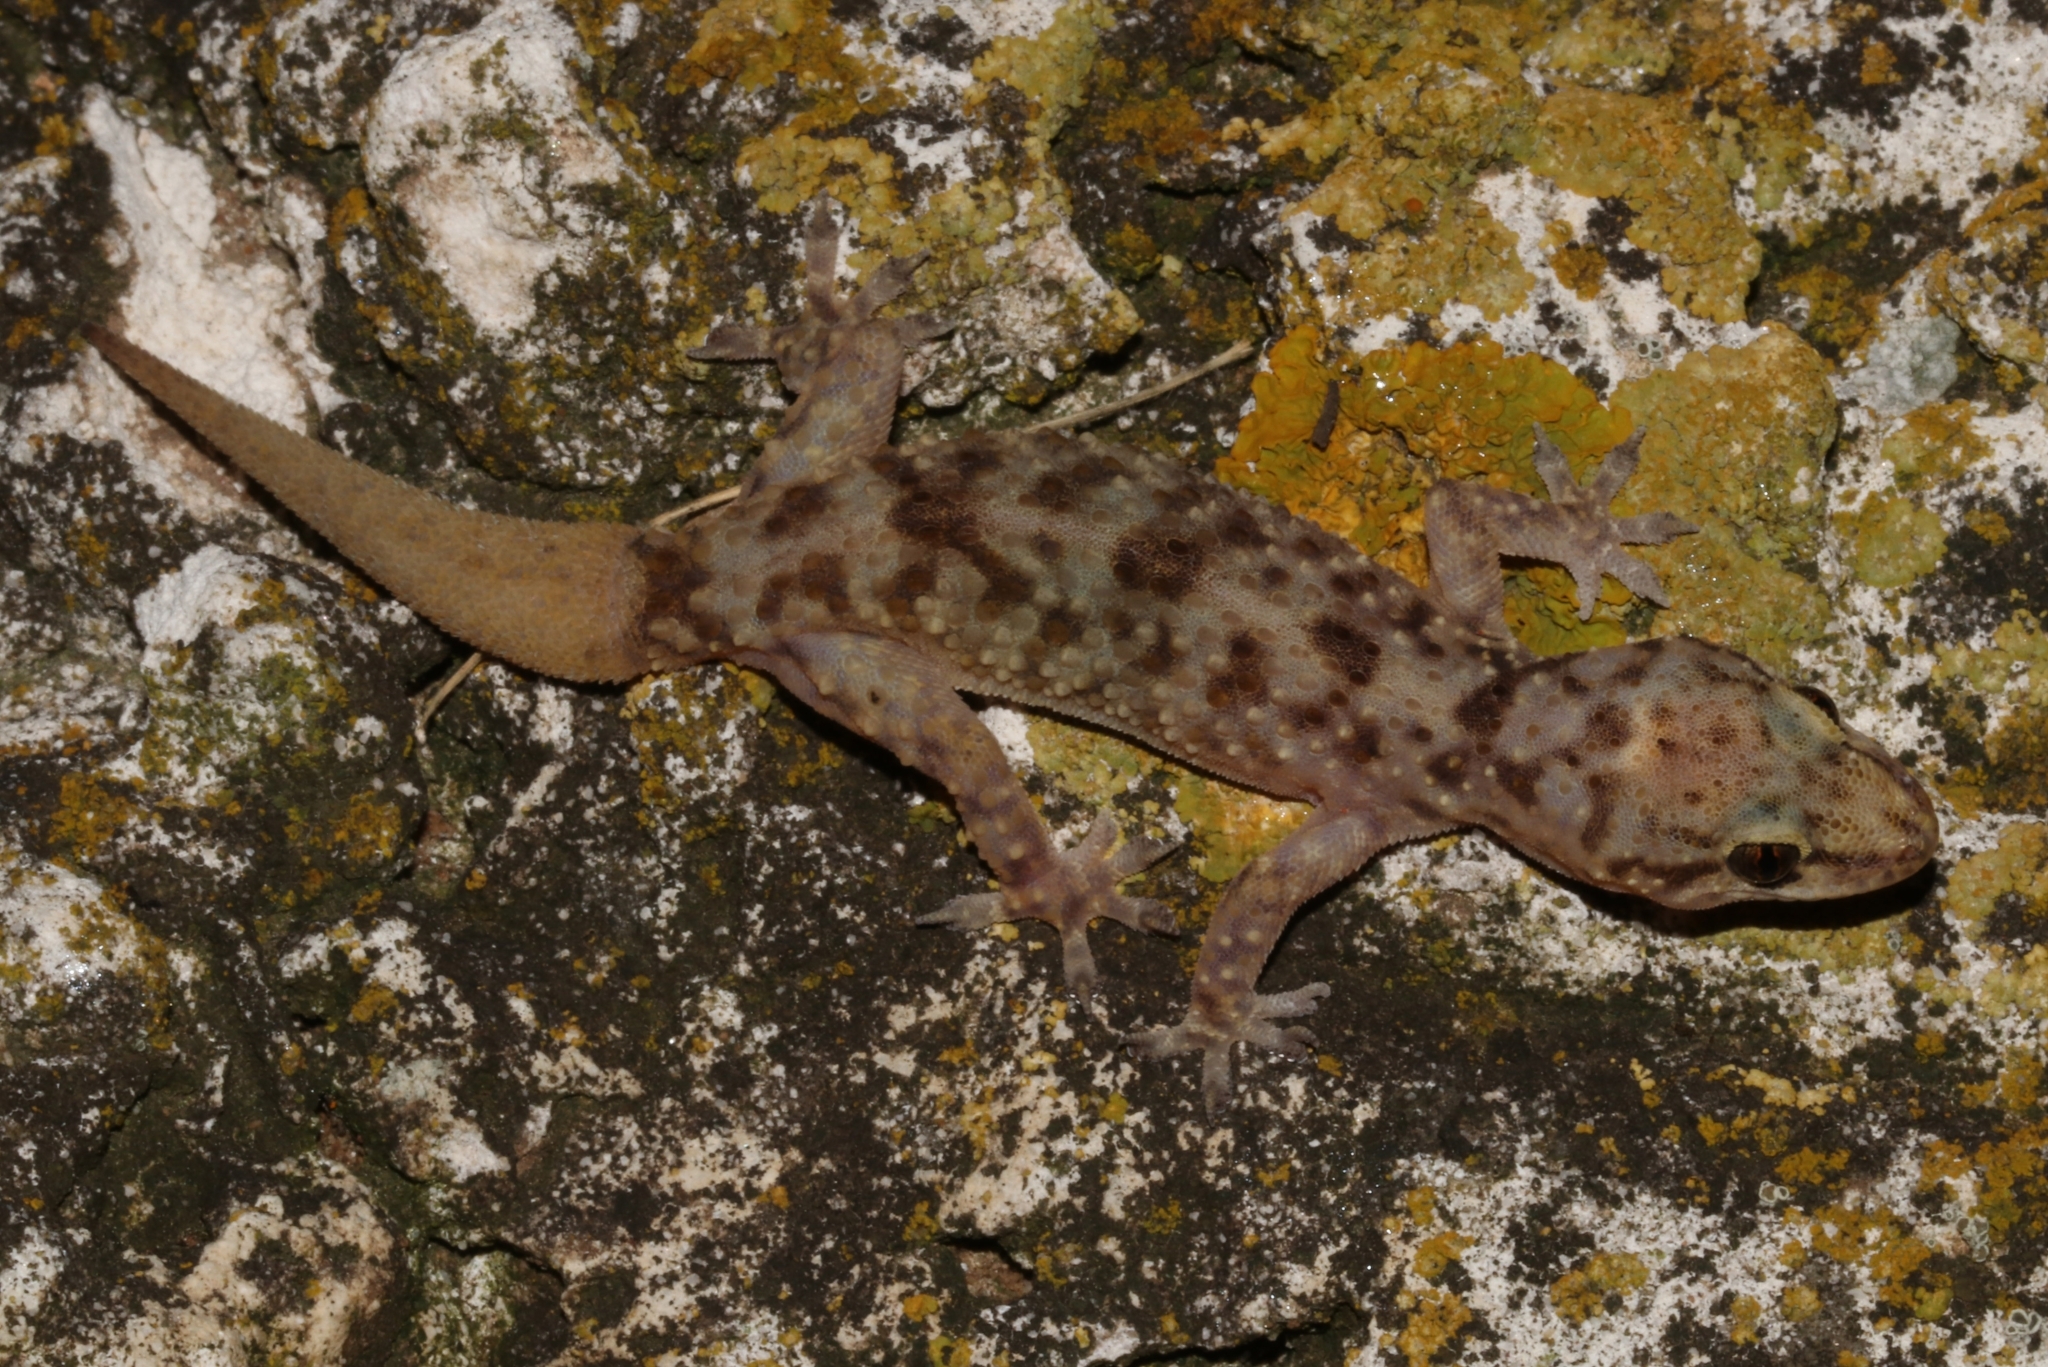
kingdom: Animalia
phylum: Chordata
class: Squamata
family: Gekkonidae
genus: Hemidactylus
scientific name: Hemidactylus turcicus
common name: Turkish gecko
